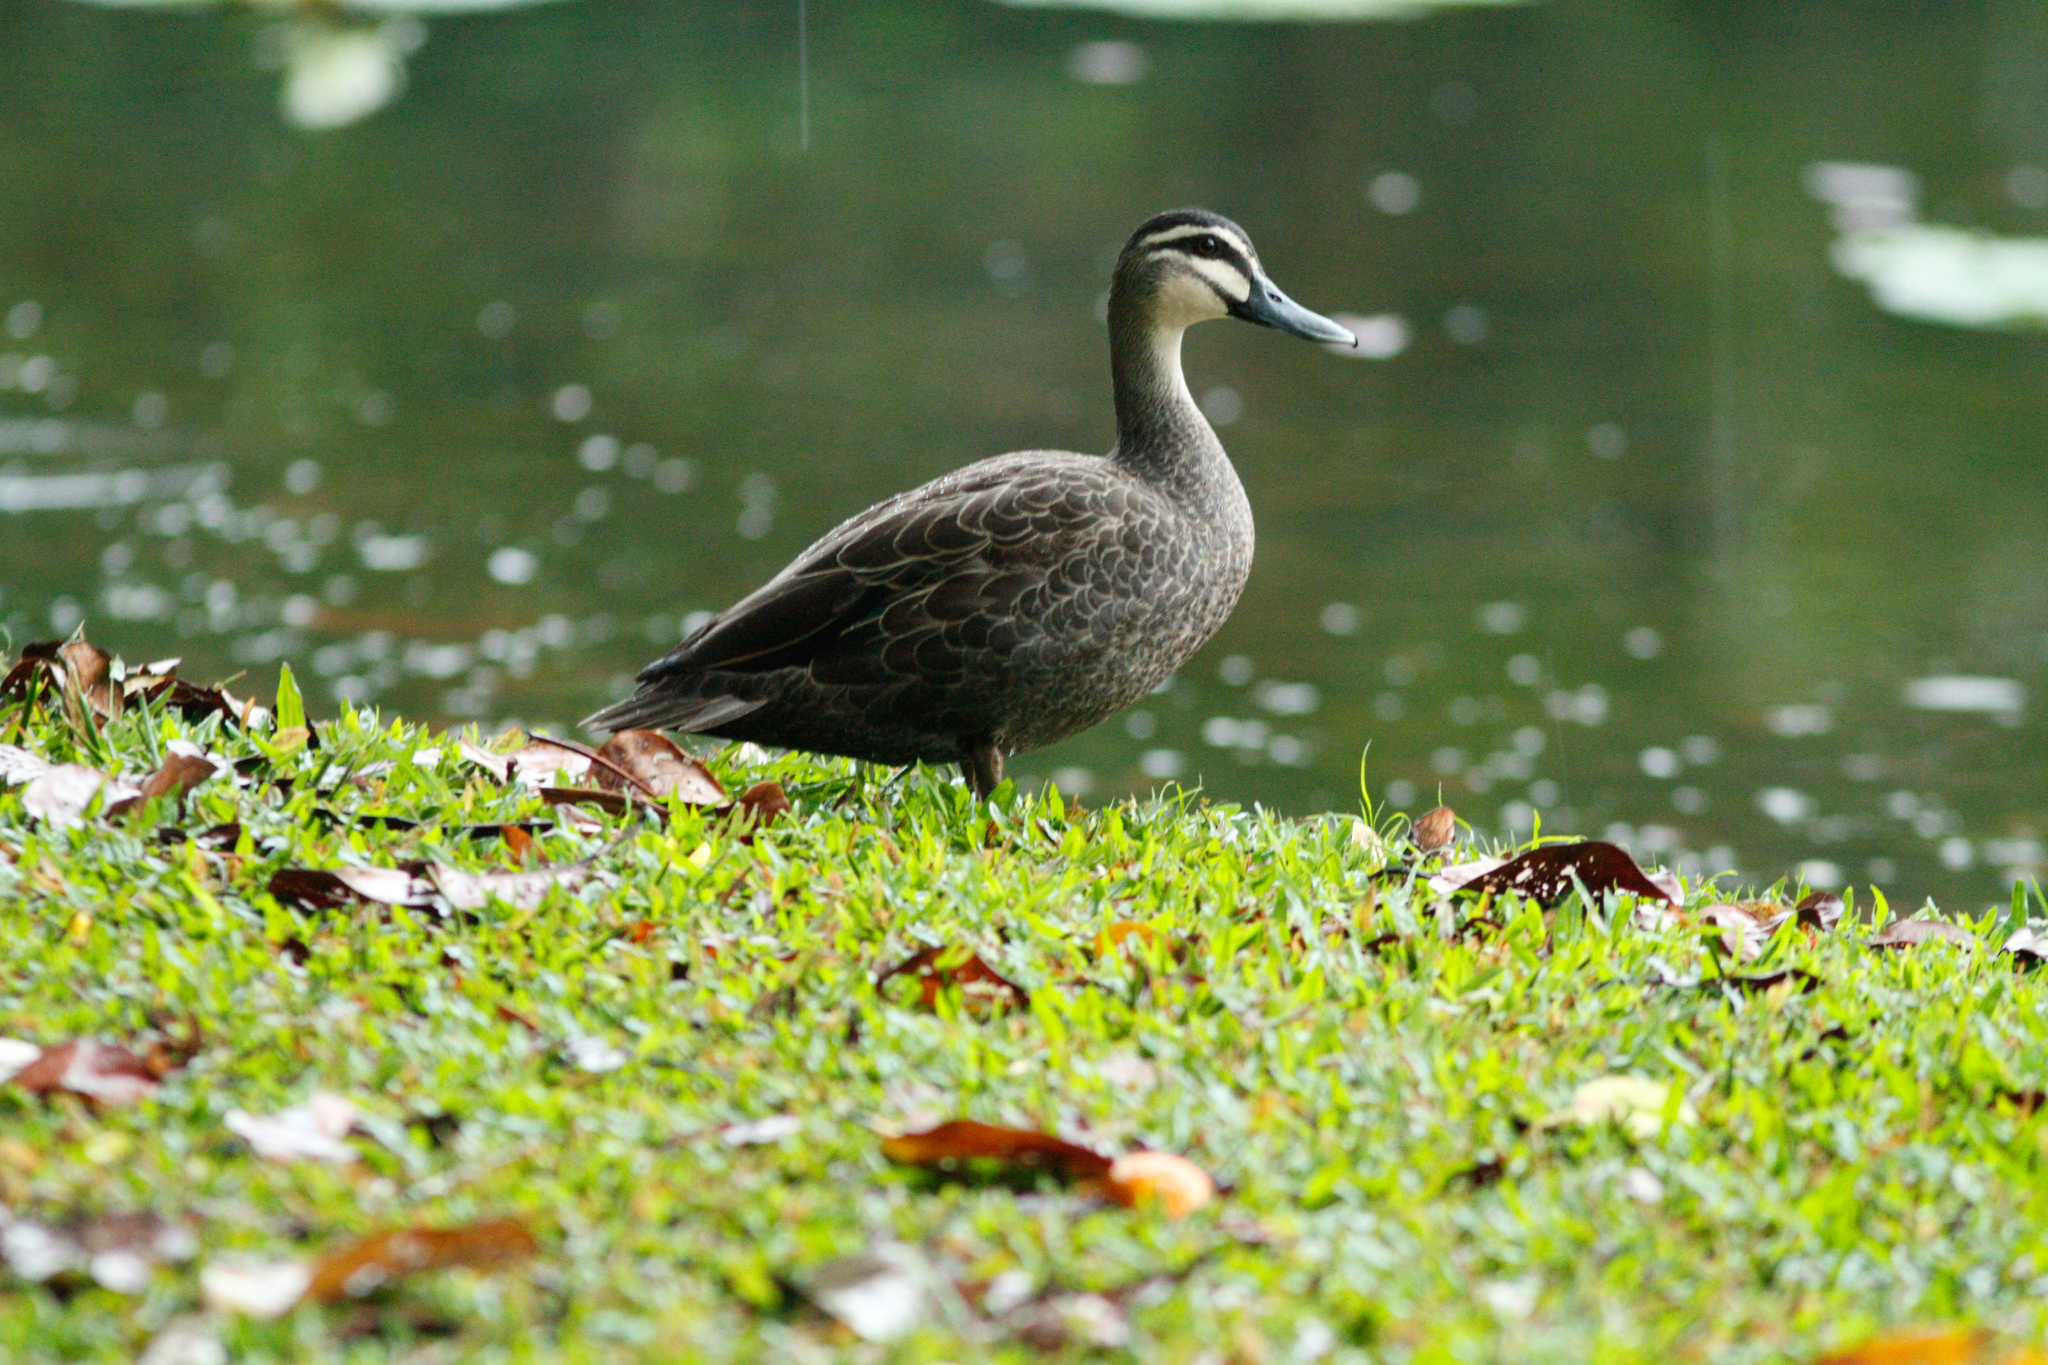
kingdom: Animalia
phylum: Chordata
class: Aves
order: Anseriformes
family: Anatidae
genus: Anas
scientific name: Anas superciliosa
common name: Pacific black duck
